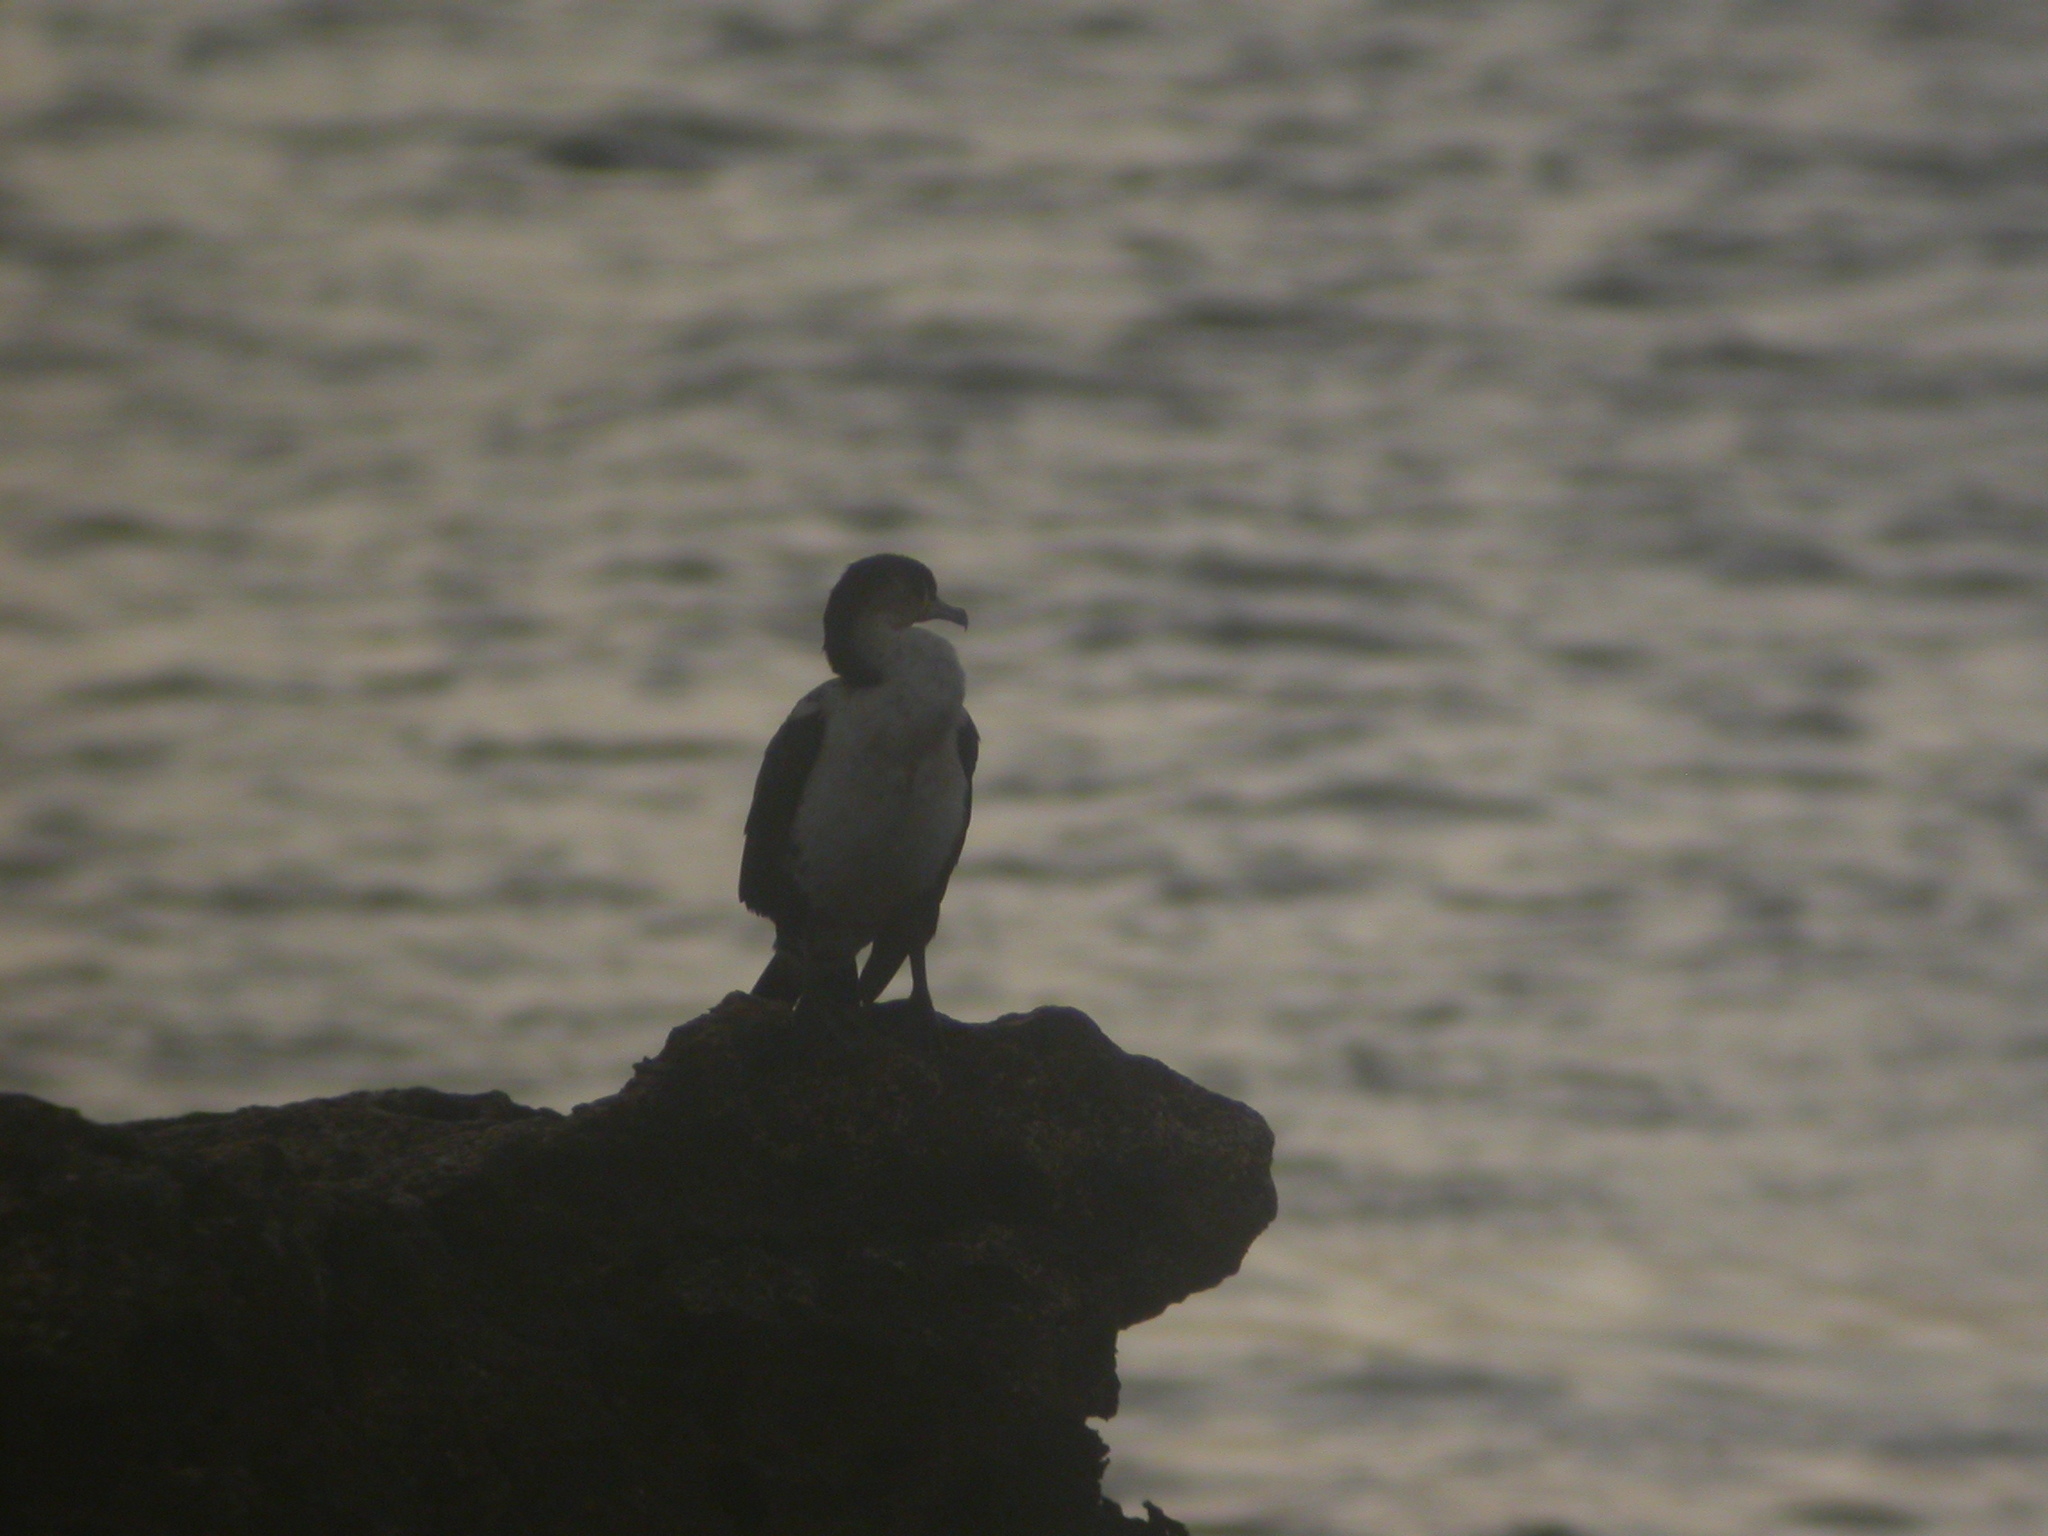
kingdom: Animalia
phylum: Chordata
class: Aves
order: Suliformes
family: Phalacrocoracidae
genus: Phalacrocorax
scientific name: Phalacrocorax carbo
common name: Great cormorant
